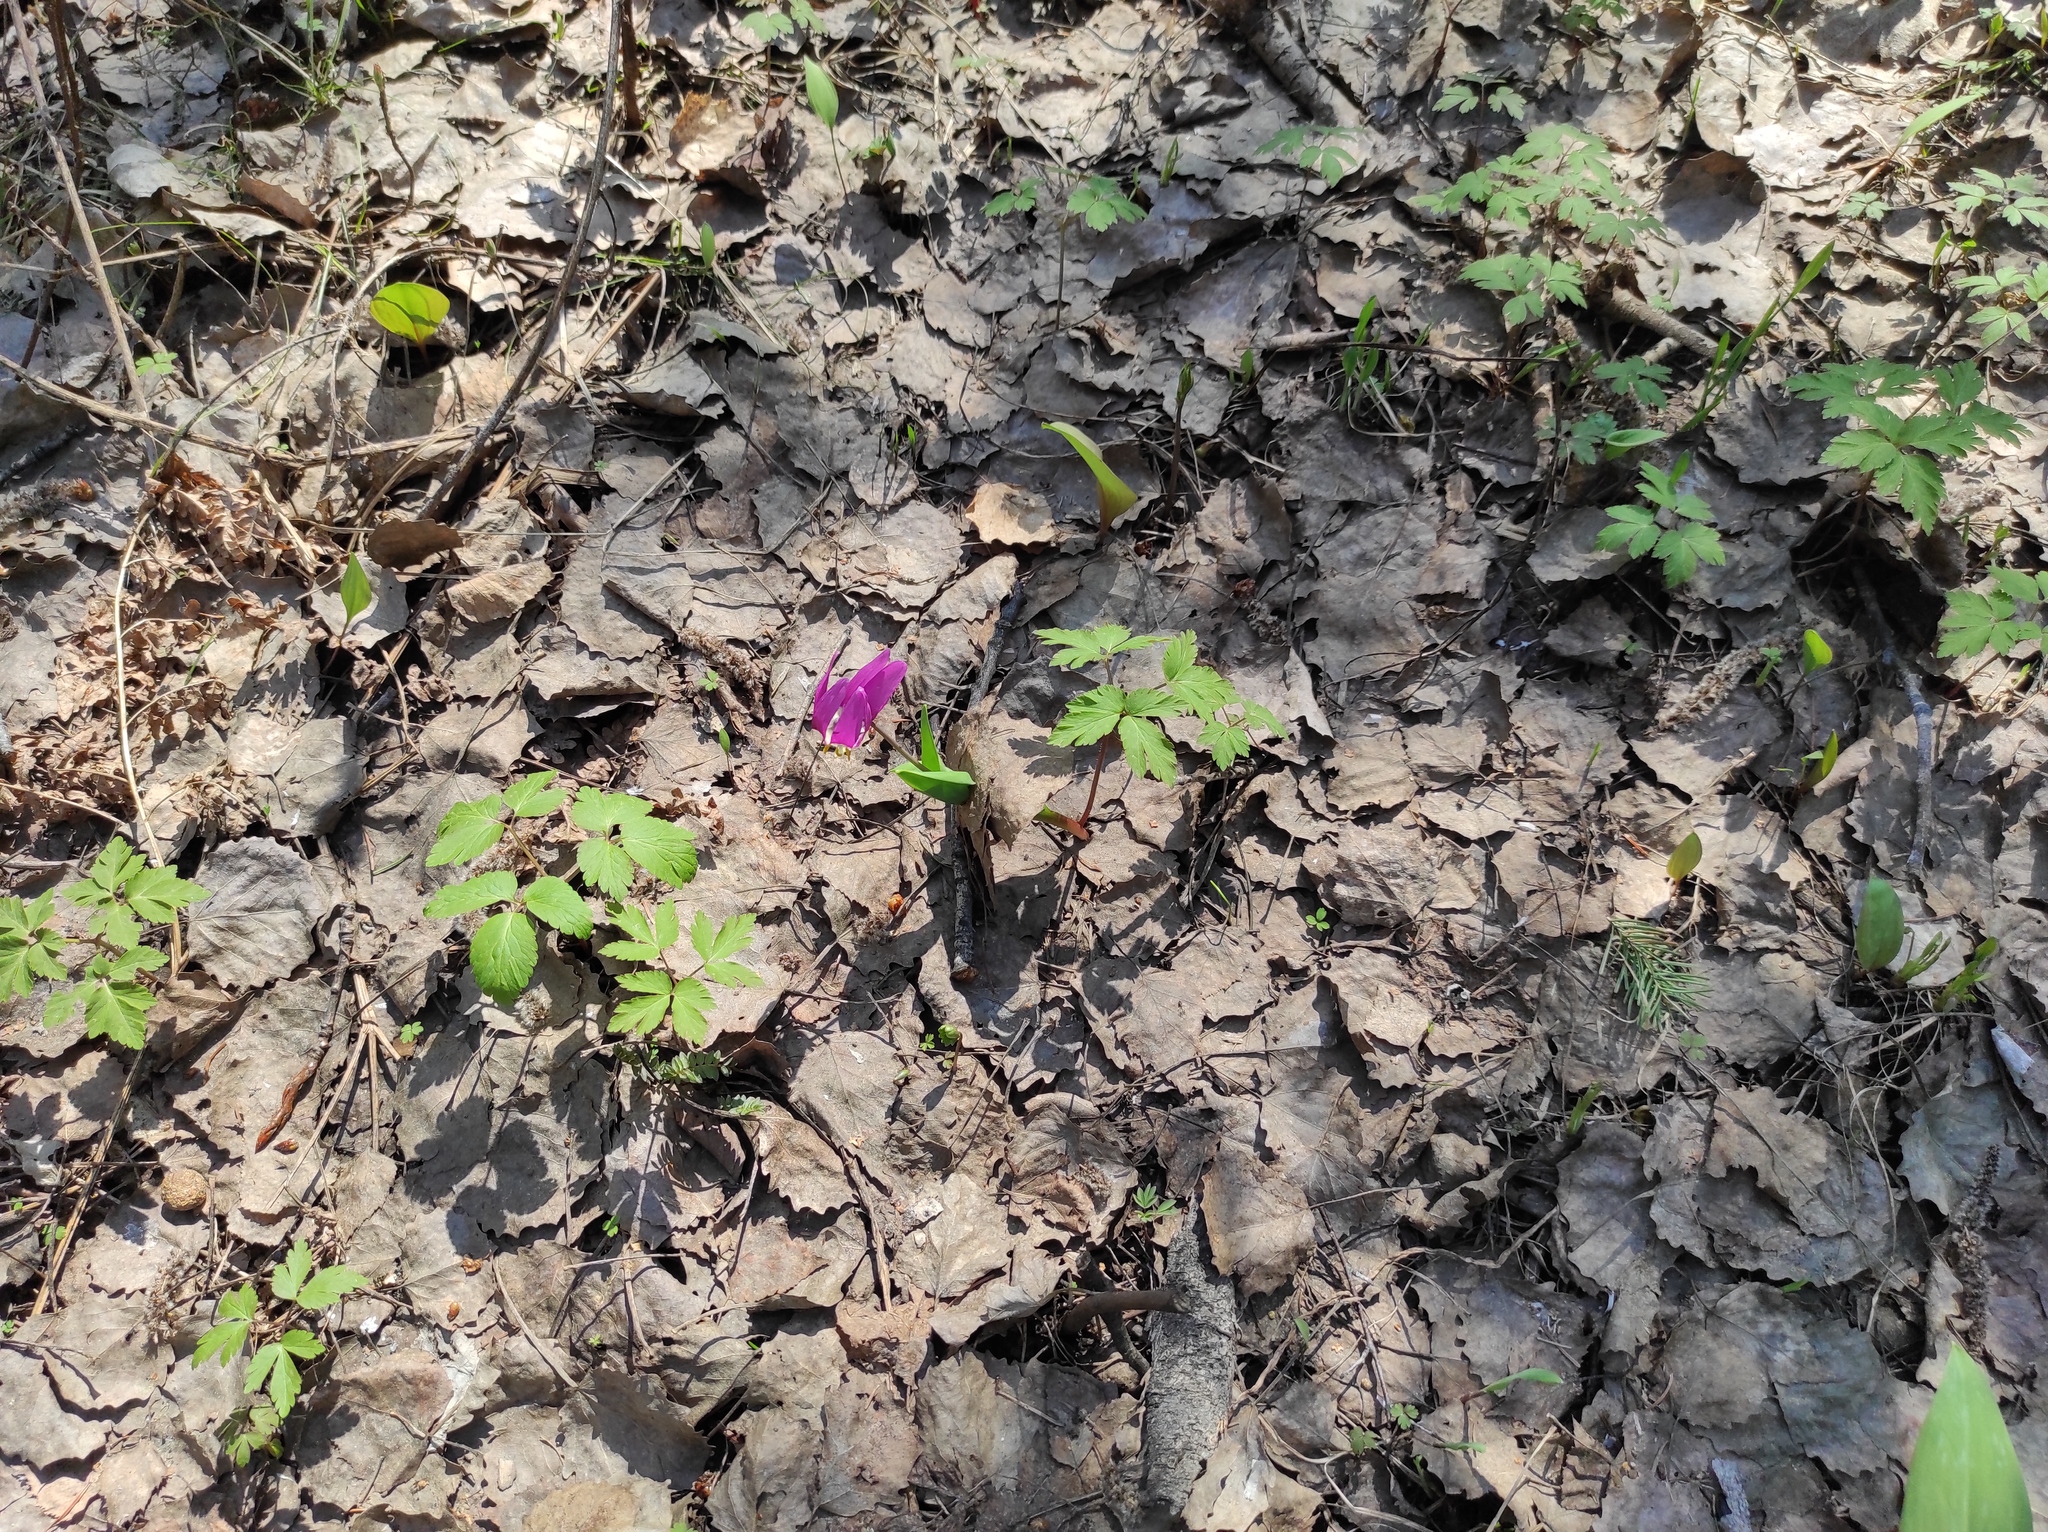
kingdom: Plantae
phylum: Tracheophyta
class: Liliopsida
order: Liliales
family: Liliaceae
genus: Erythronium
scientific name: Erythronium sibiricum
